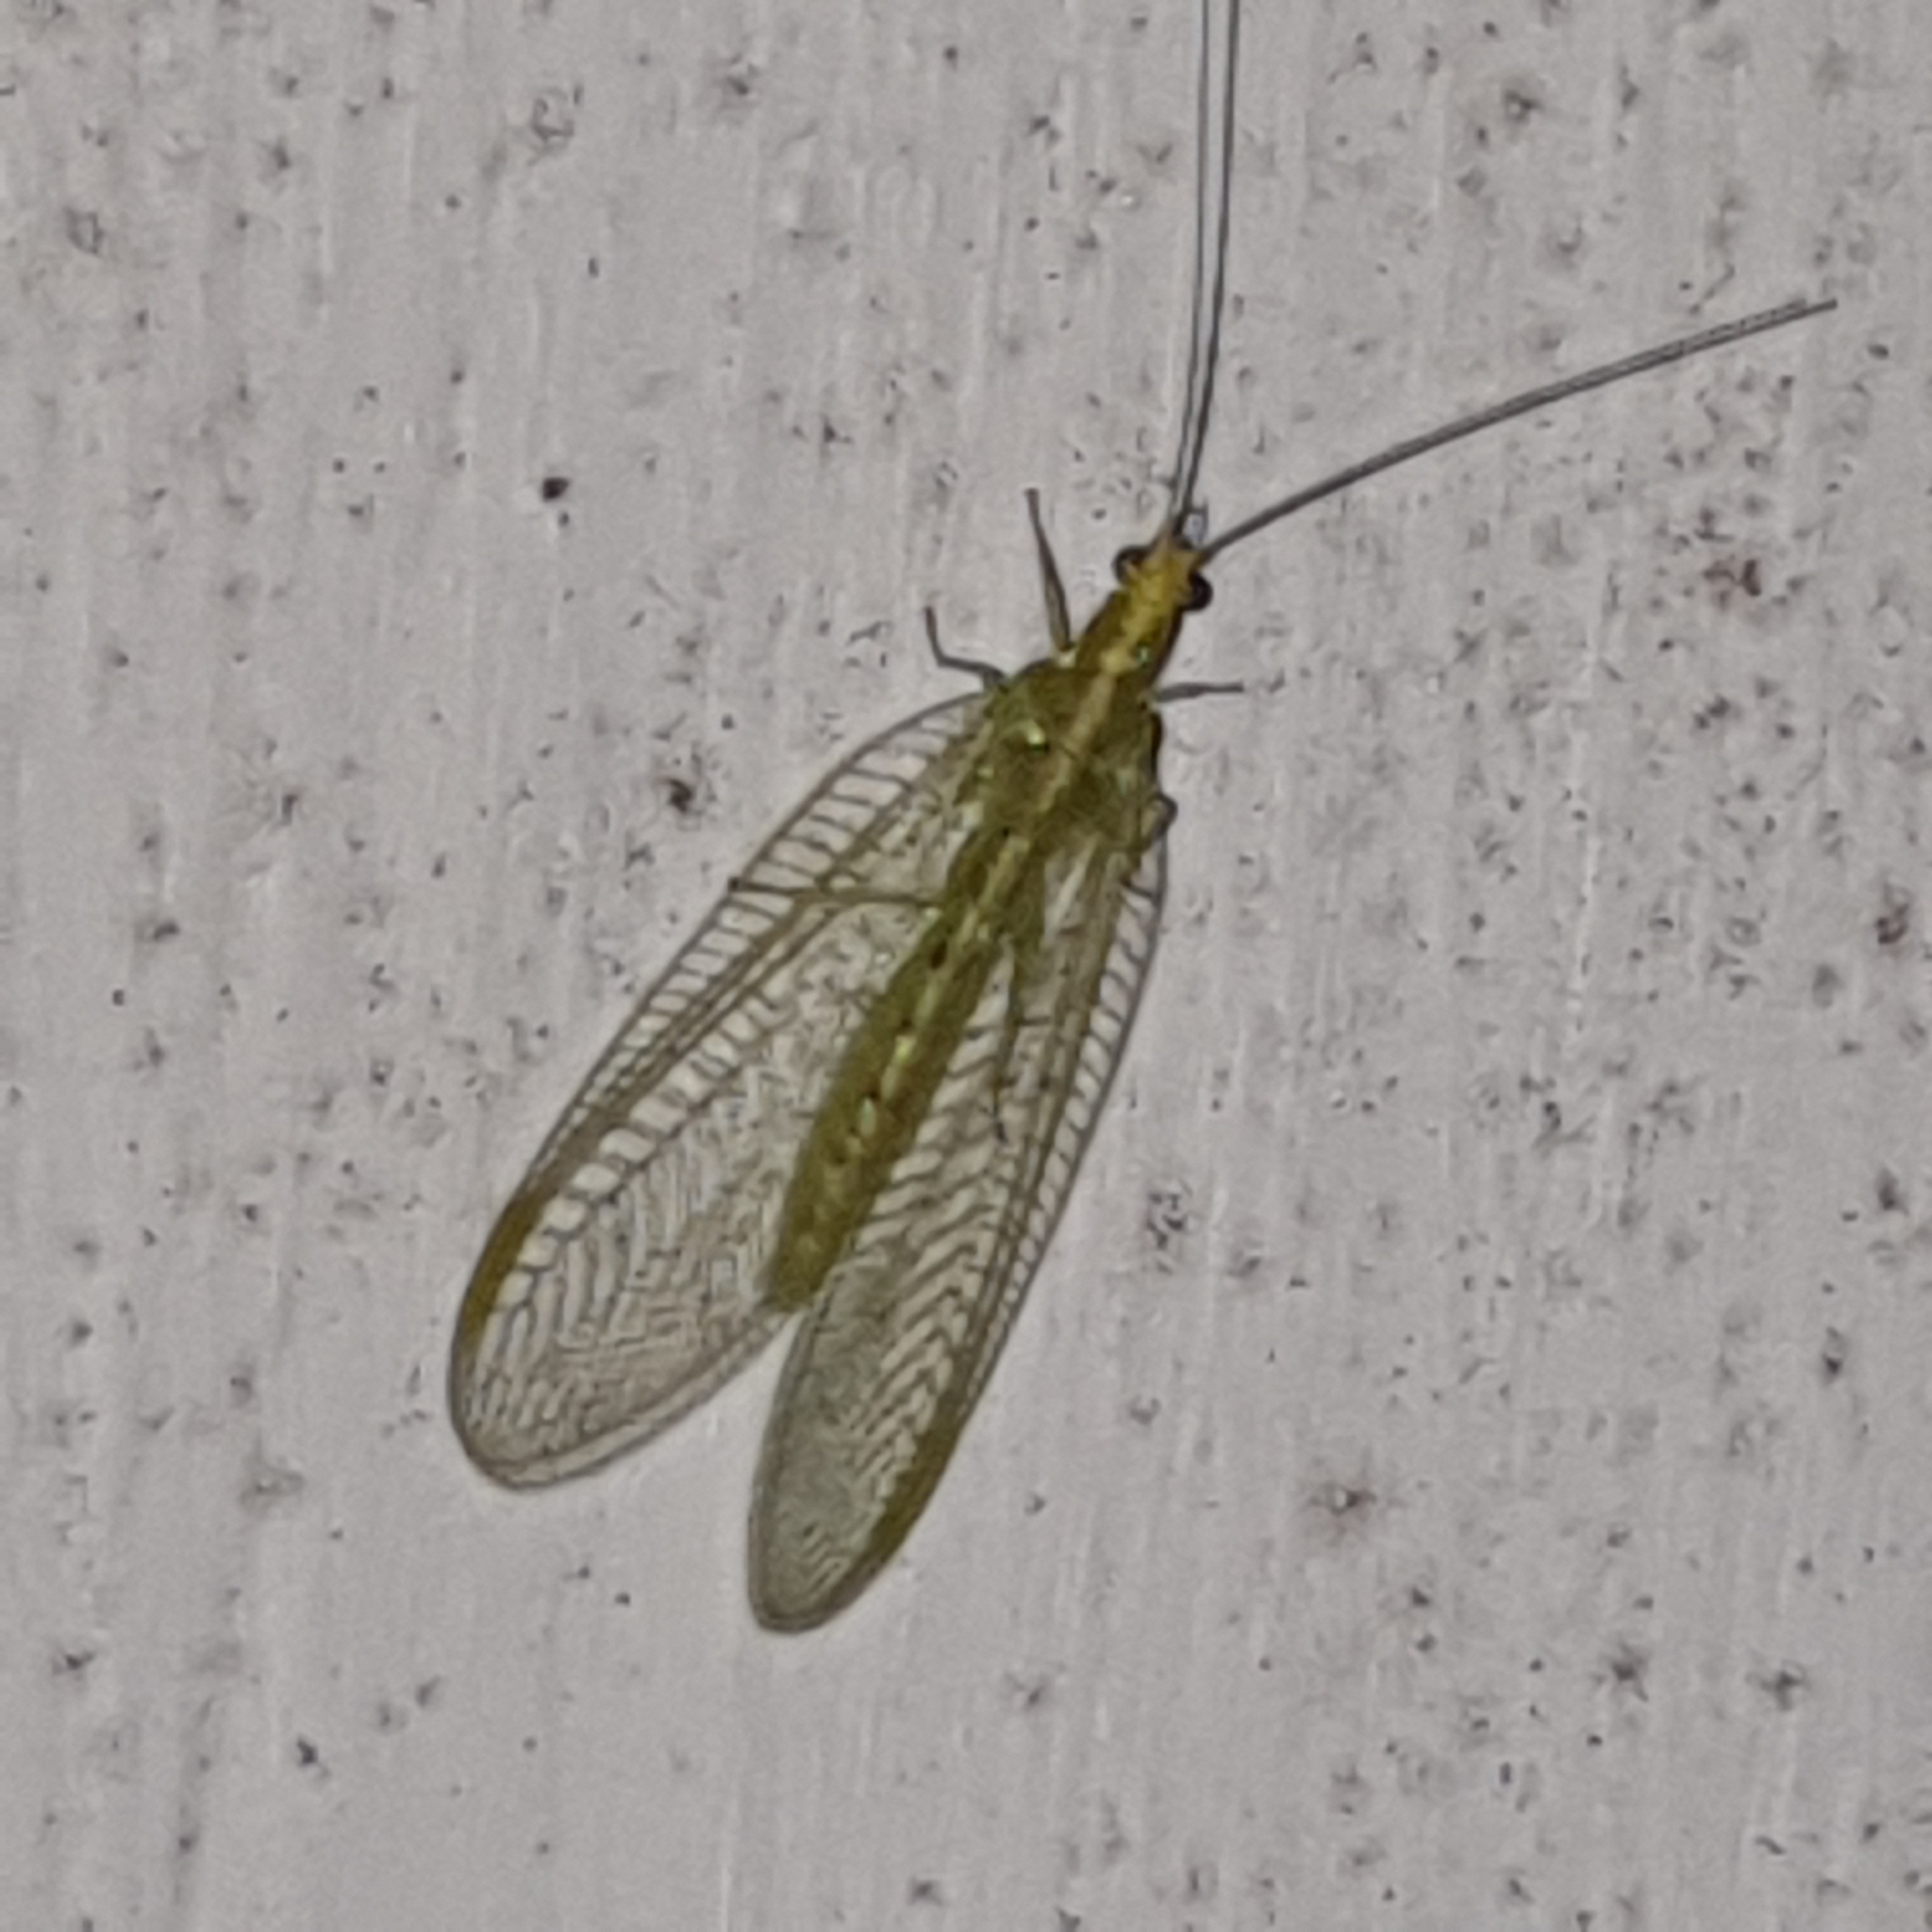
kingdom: Animalia
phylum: Arthropoda
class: Insecta
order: Neuroptera
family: Chrysopidae
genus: Chrysoperla
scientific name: Chrysoperla
